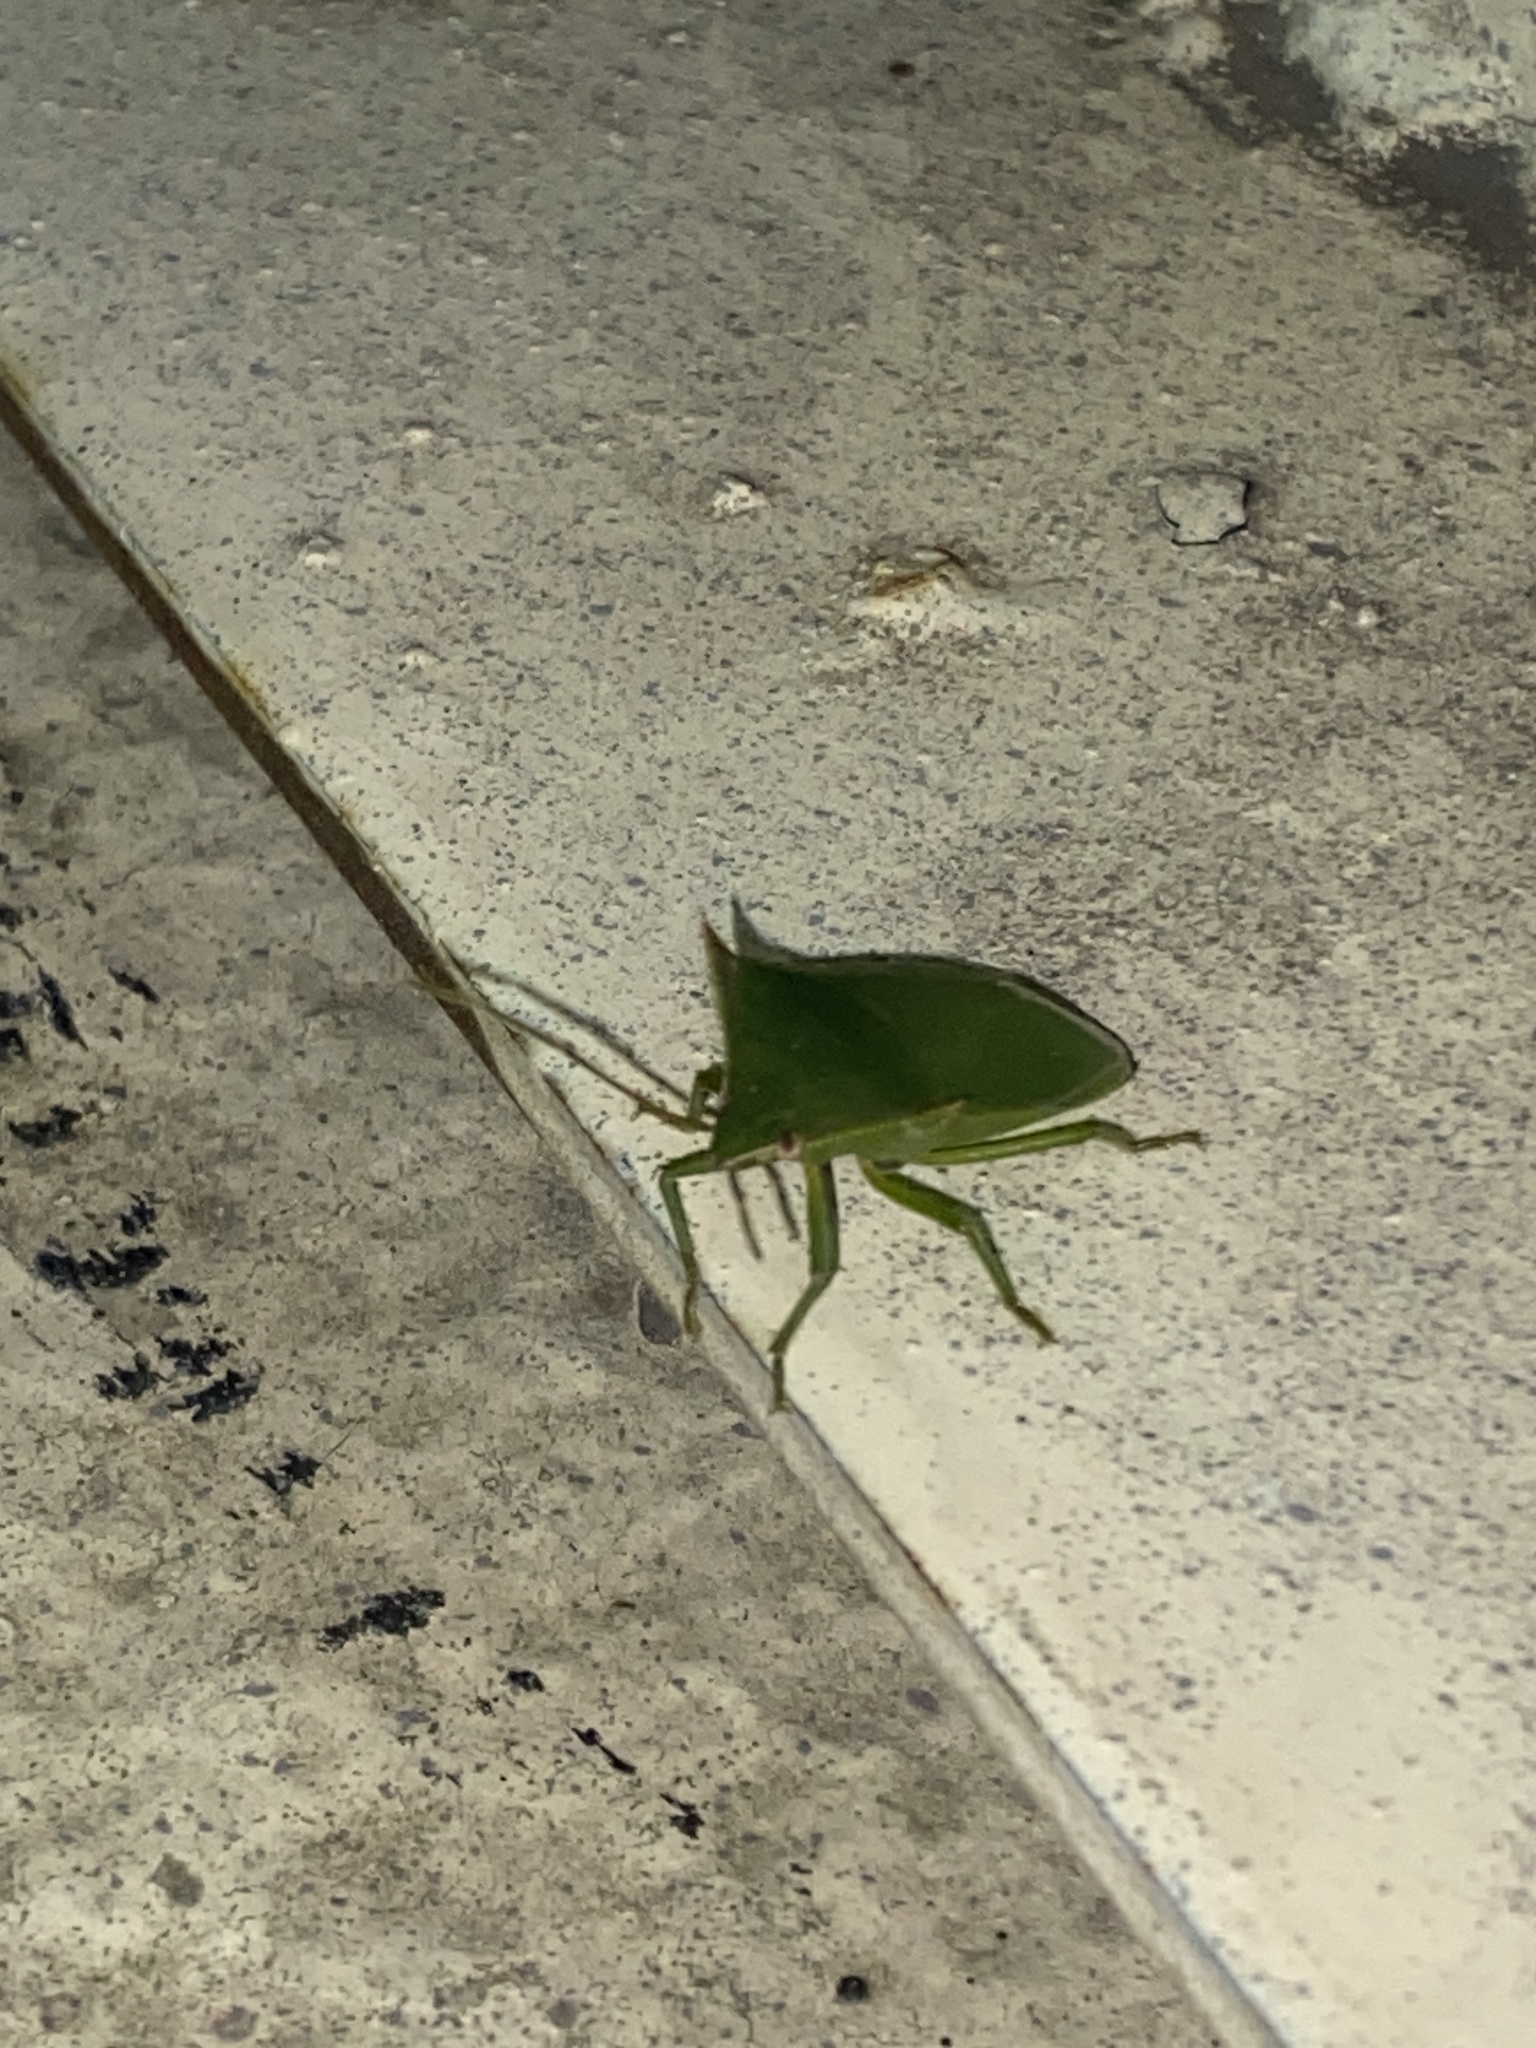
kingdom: Animalia
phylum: Arthropoda
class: Insecta
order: Hemiptera
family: Pentatomidae
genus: Loxa
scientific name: Loxa deducta
